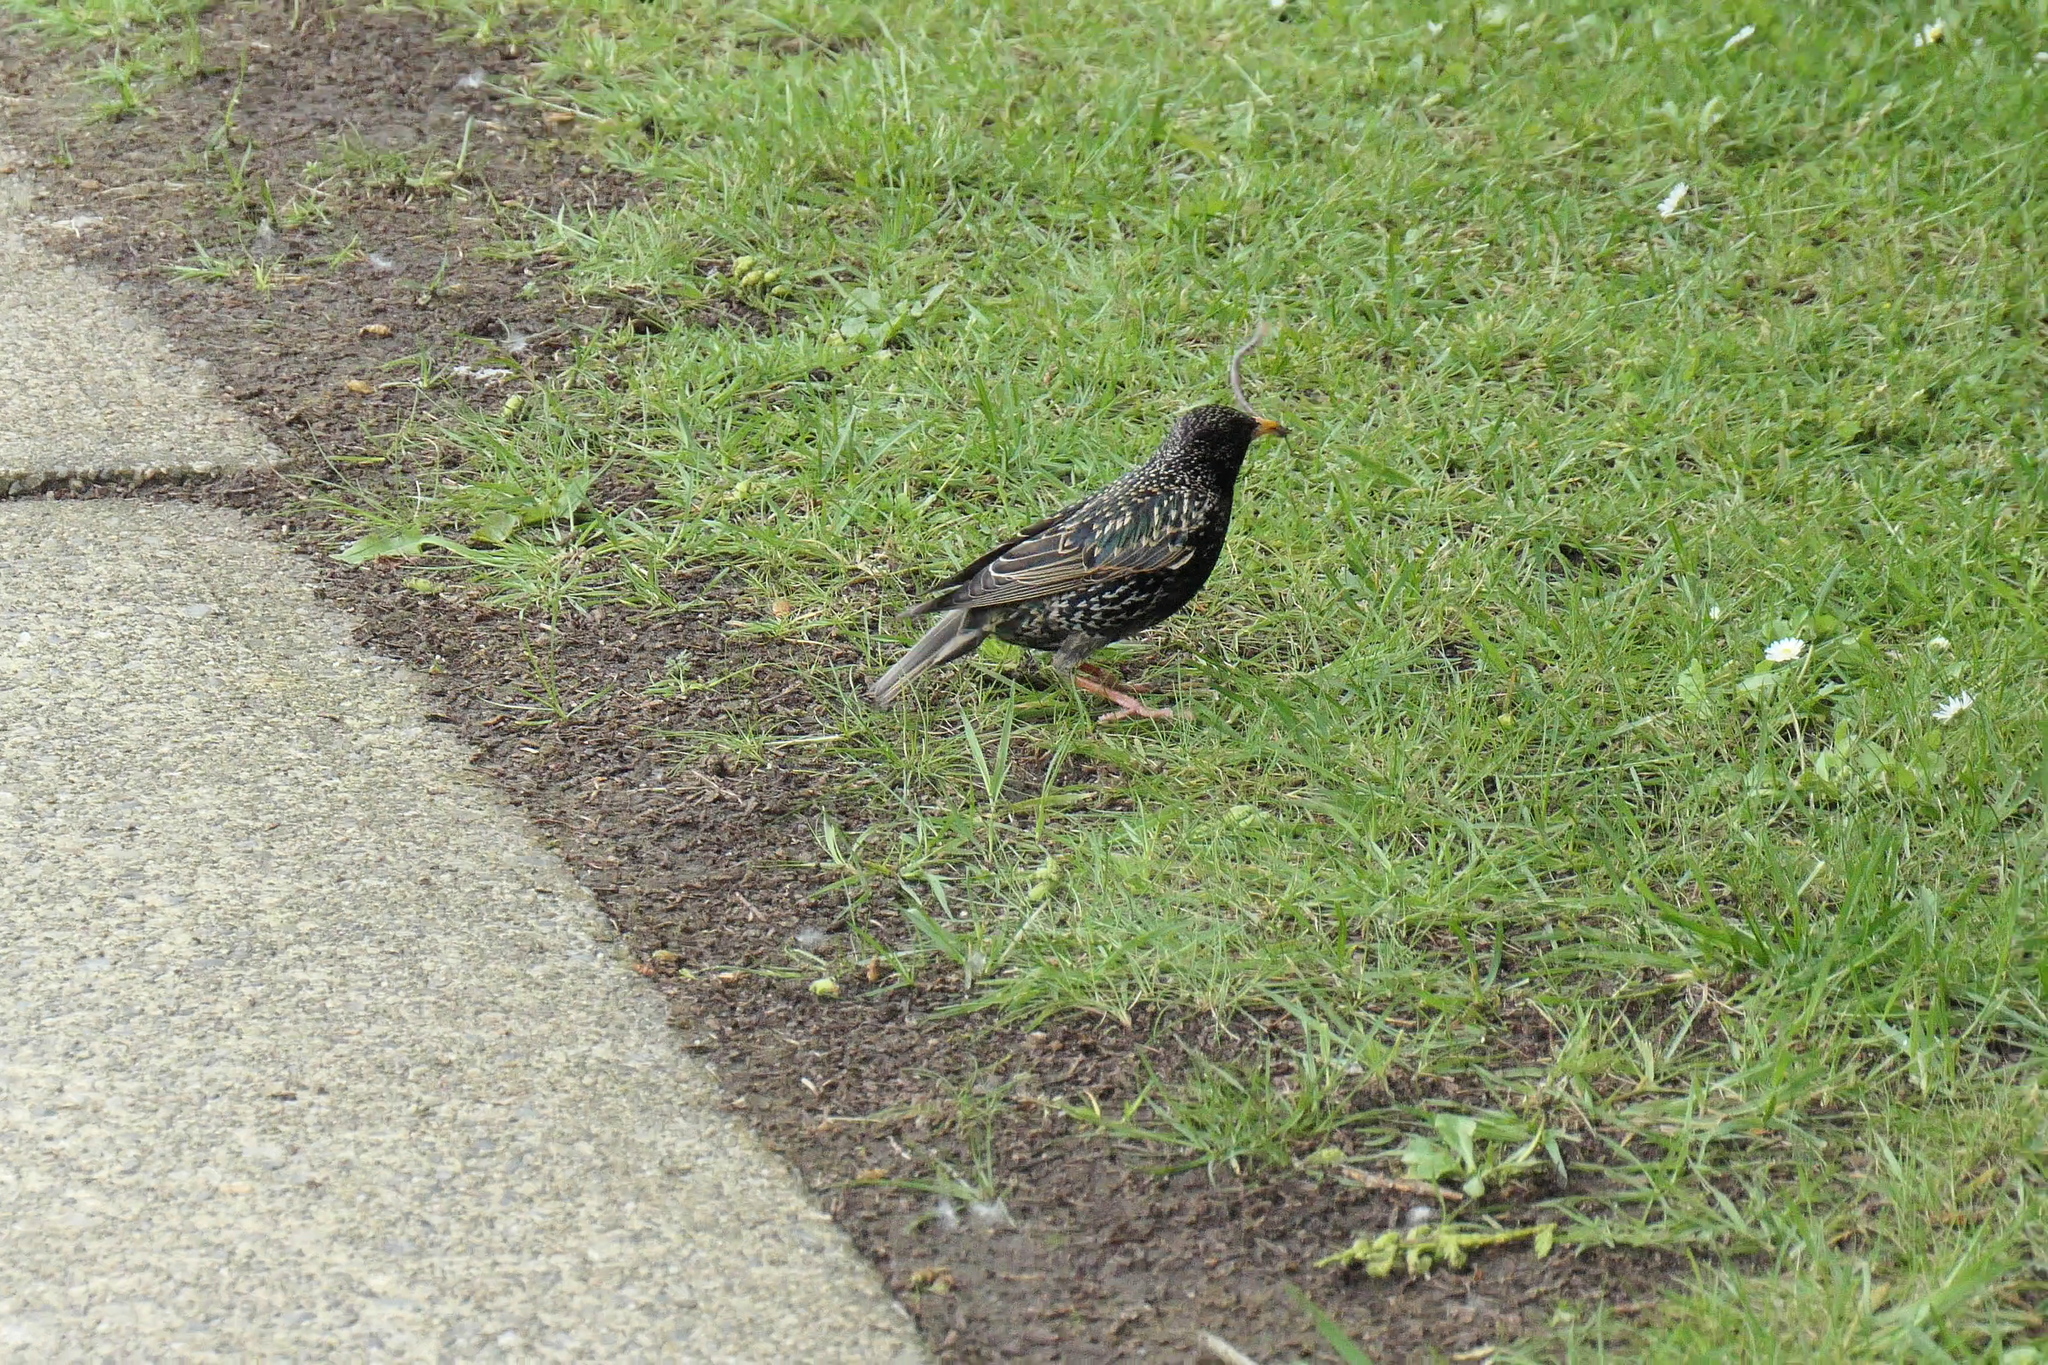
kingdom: Animalia
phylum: Chordata
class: Aves
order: Passeriformes
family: Sturnidae
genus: Sturnus
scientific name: Sturnus vulgaris
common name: Common starling
